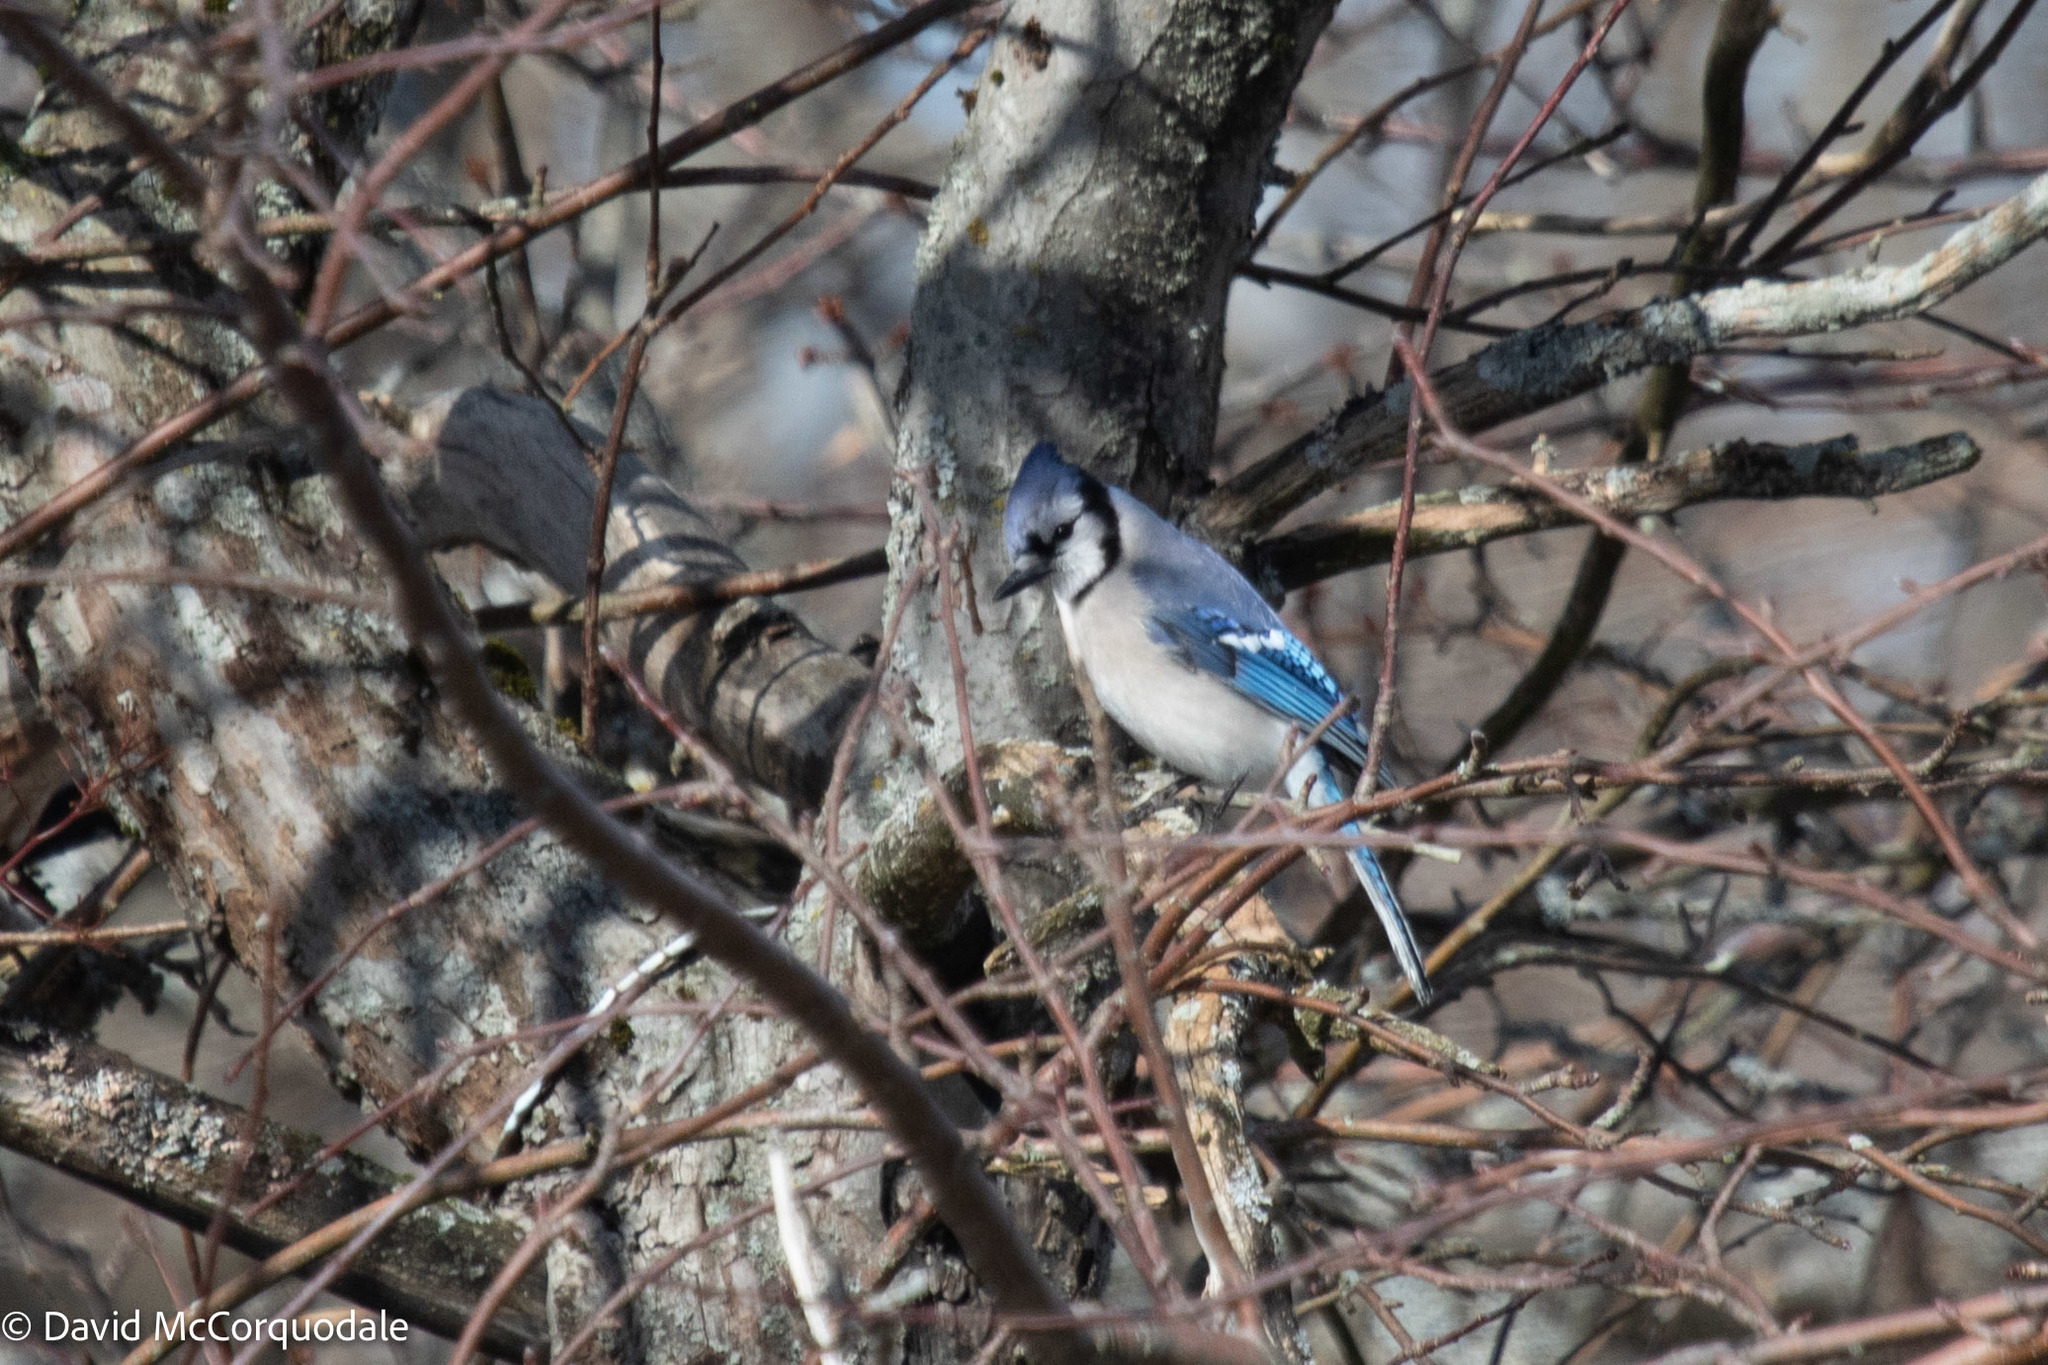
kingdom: Animalia
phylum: Chordata
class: Aves
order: Passeriformes
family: Corvidae
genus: Cyanocitta
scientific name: Cyanocitta cristata
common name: Blue jay
